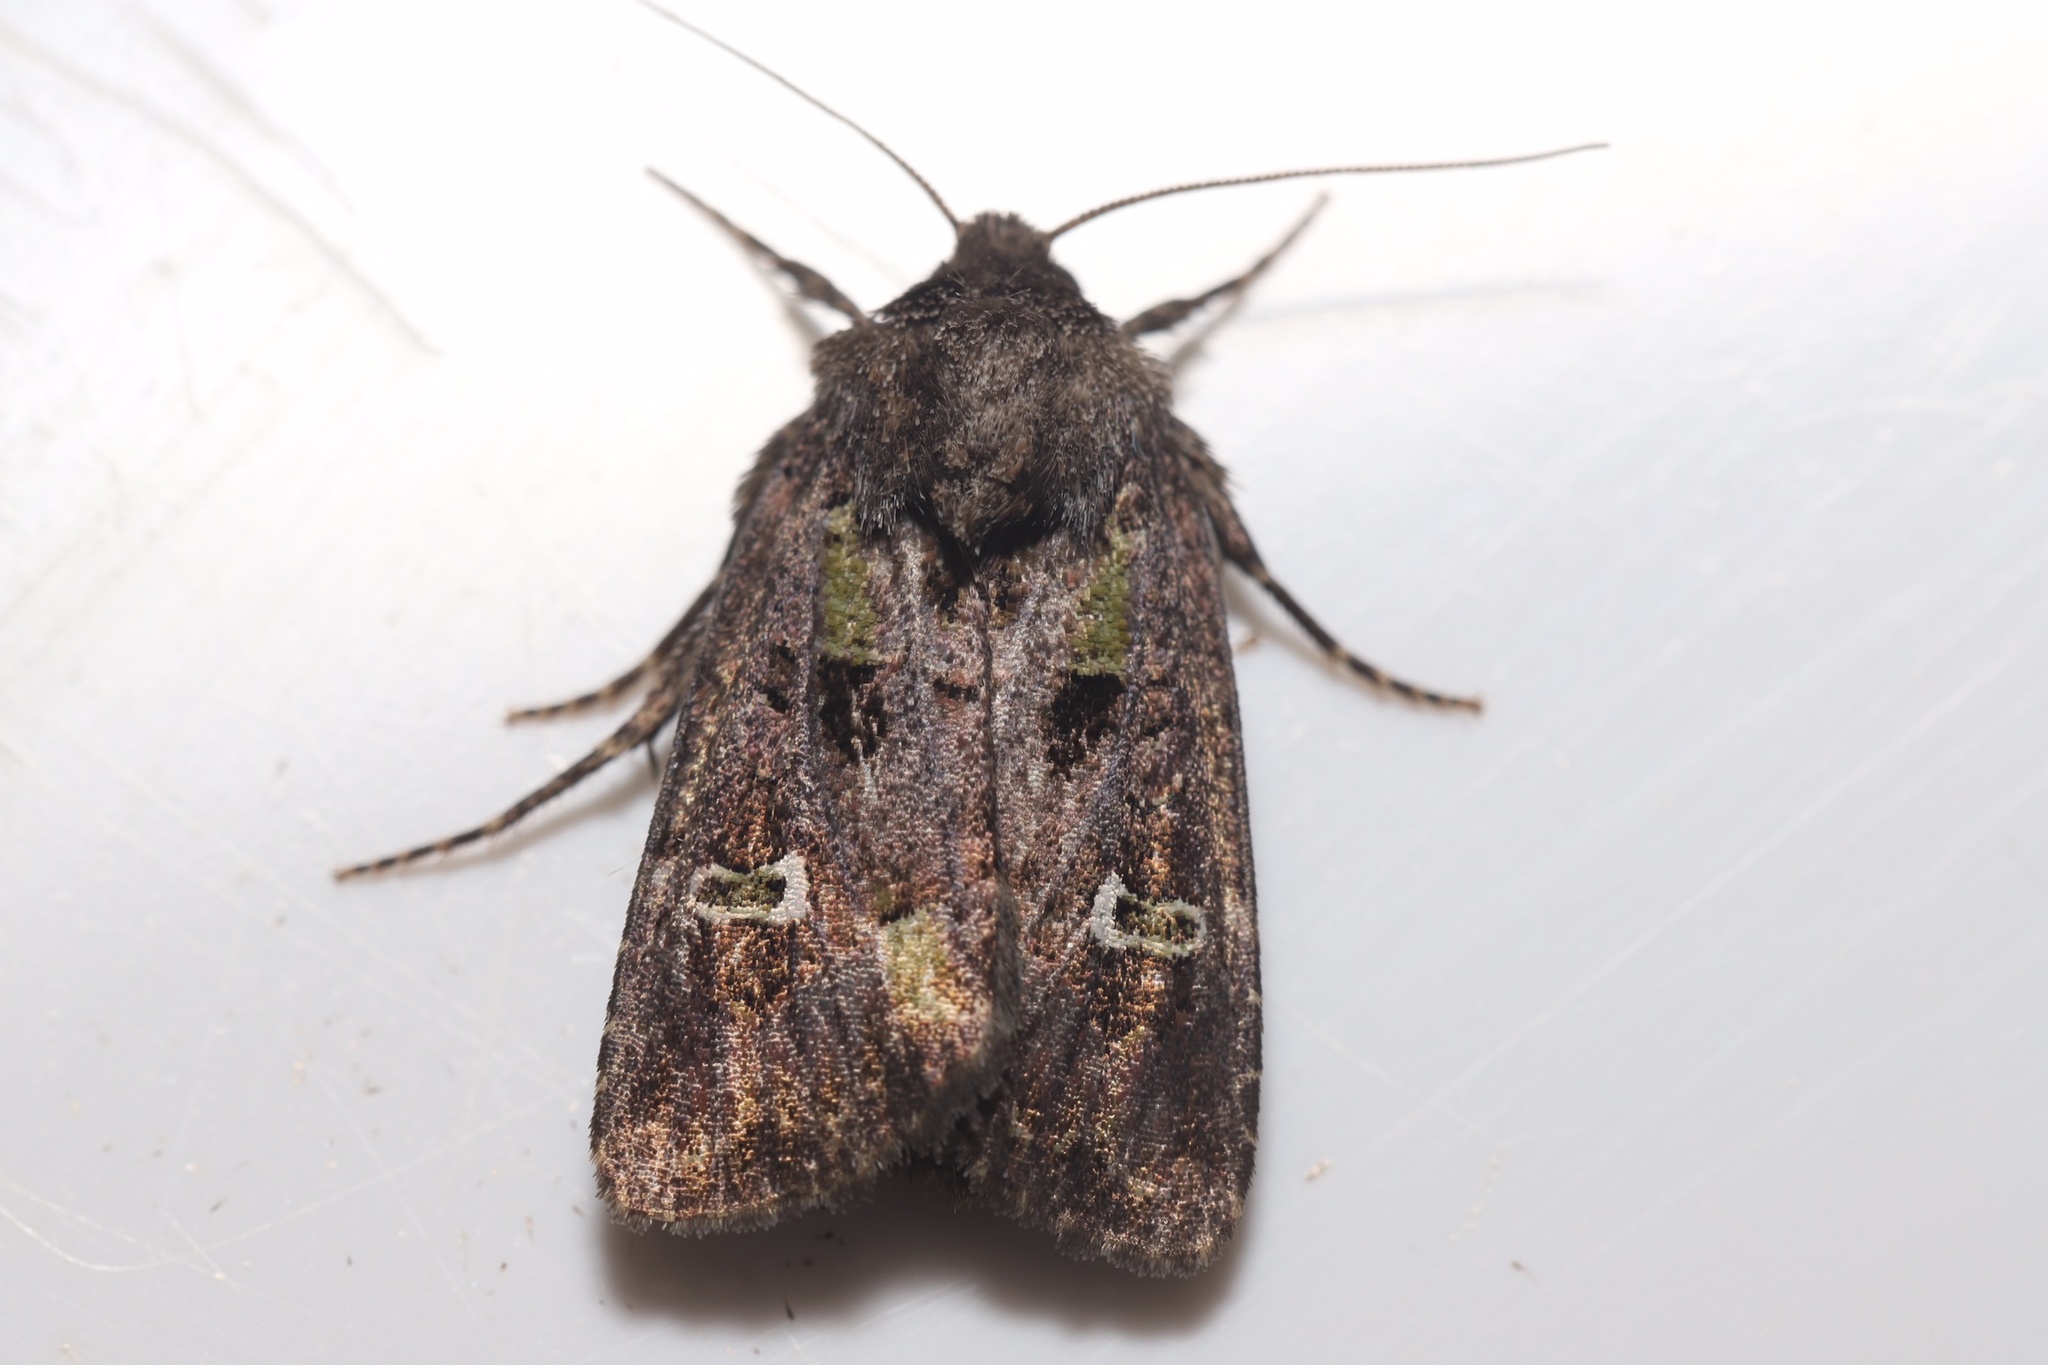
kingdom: Animalia
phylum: Arthropoda
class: Insecta
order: Lepidoptera
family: Noctuidae
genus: Lacinipolia
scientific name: Lacinipolia renigera
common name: Kidney-spotted minor
